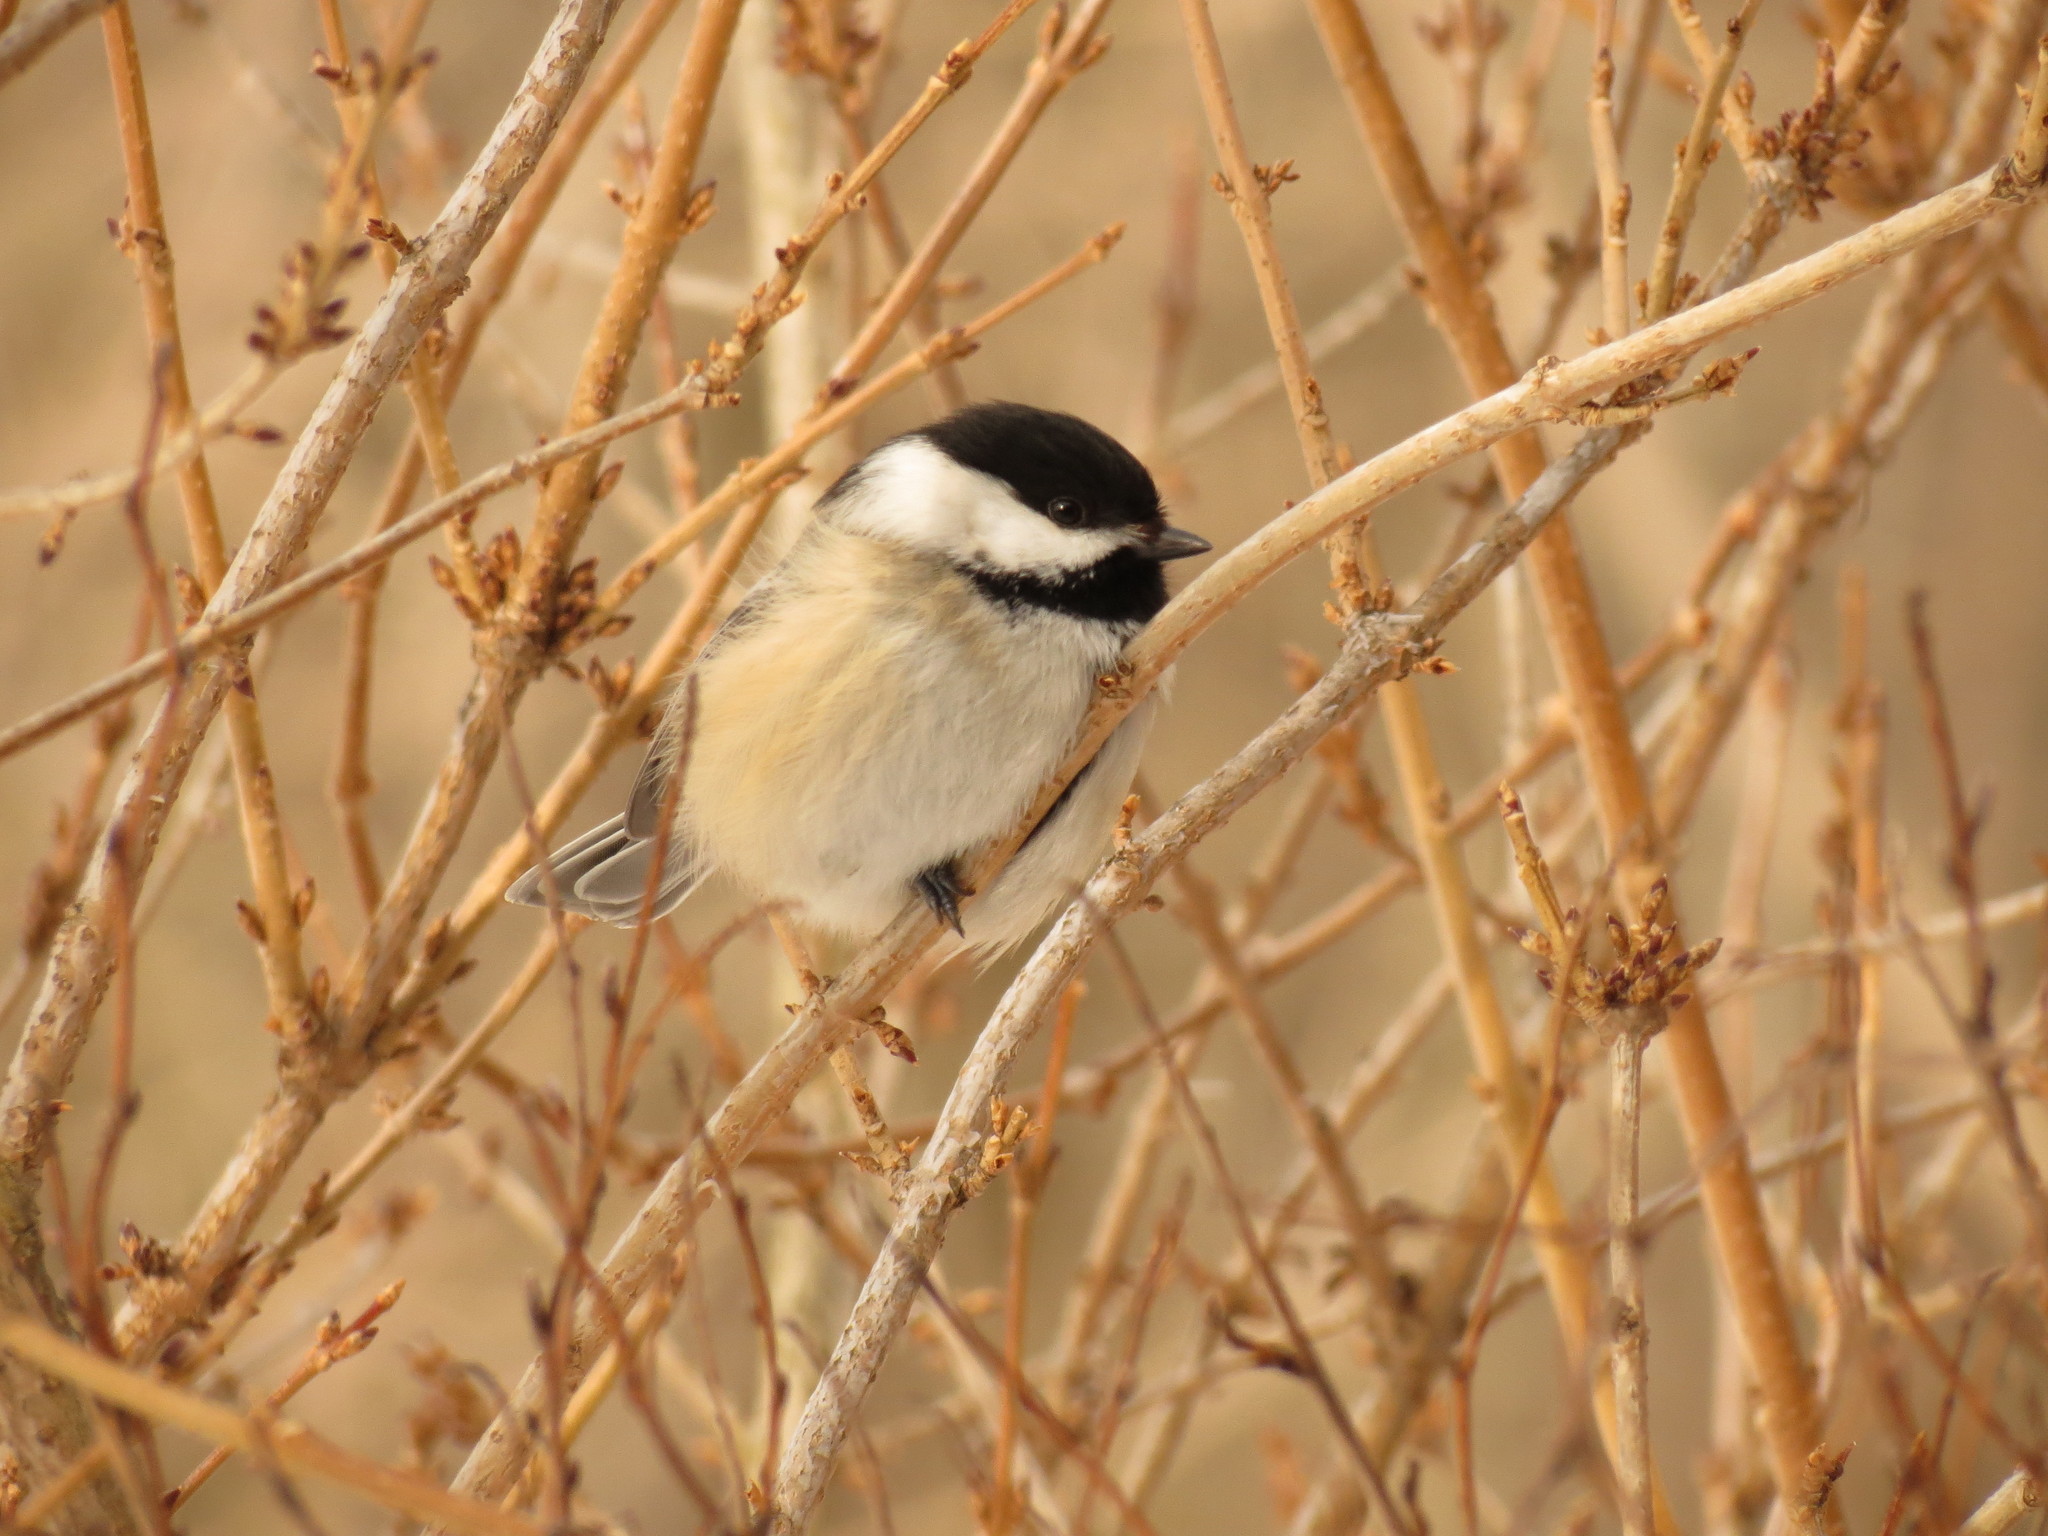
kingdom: Animalia
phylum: Chordata
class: Aves
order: Passeriformes
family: Paridae
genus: Poecile
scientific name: Poecile atricapillus
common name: Black-capped chickadee
